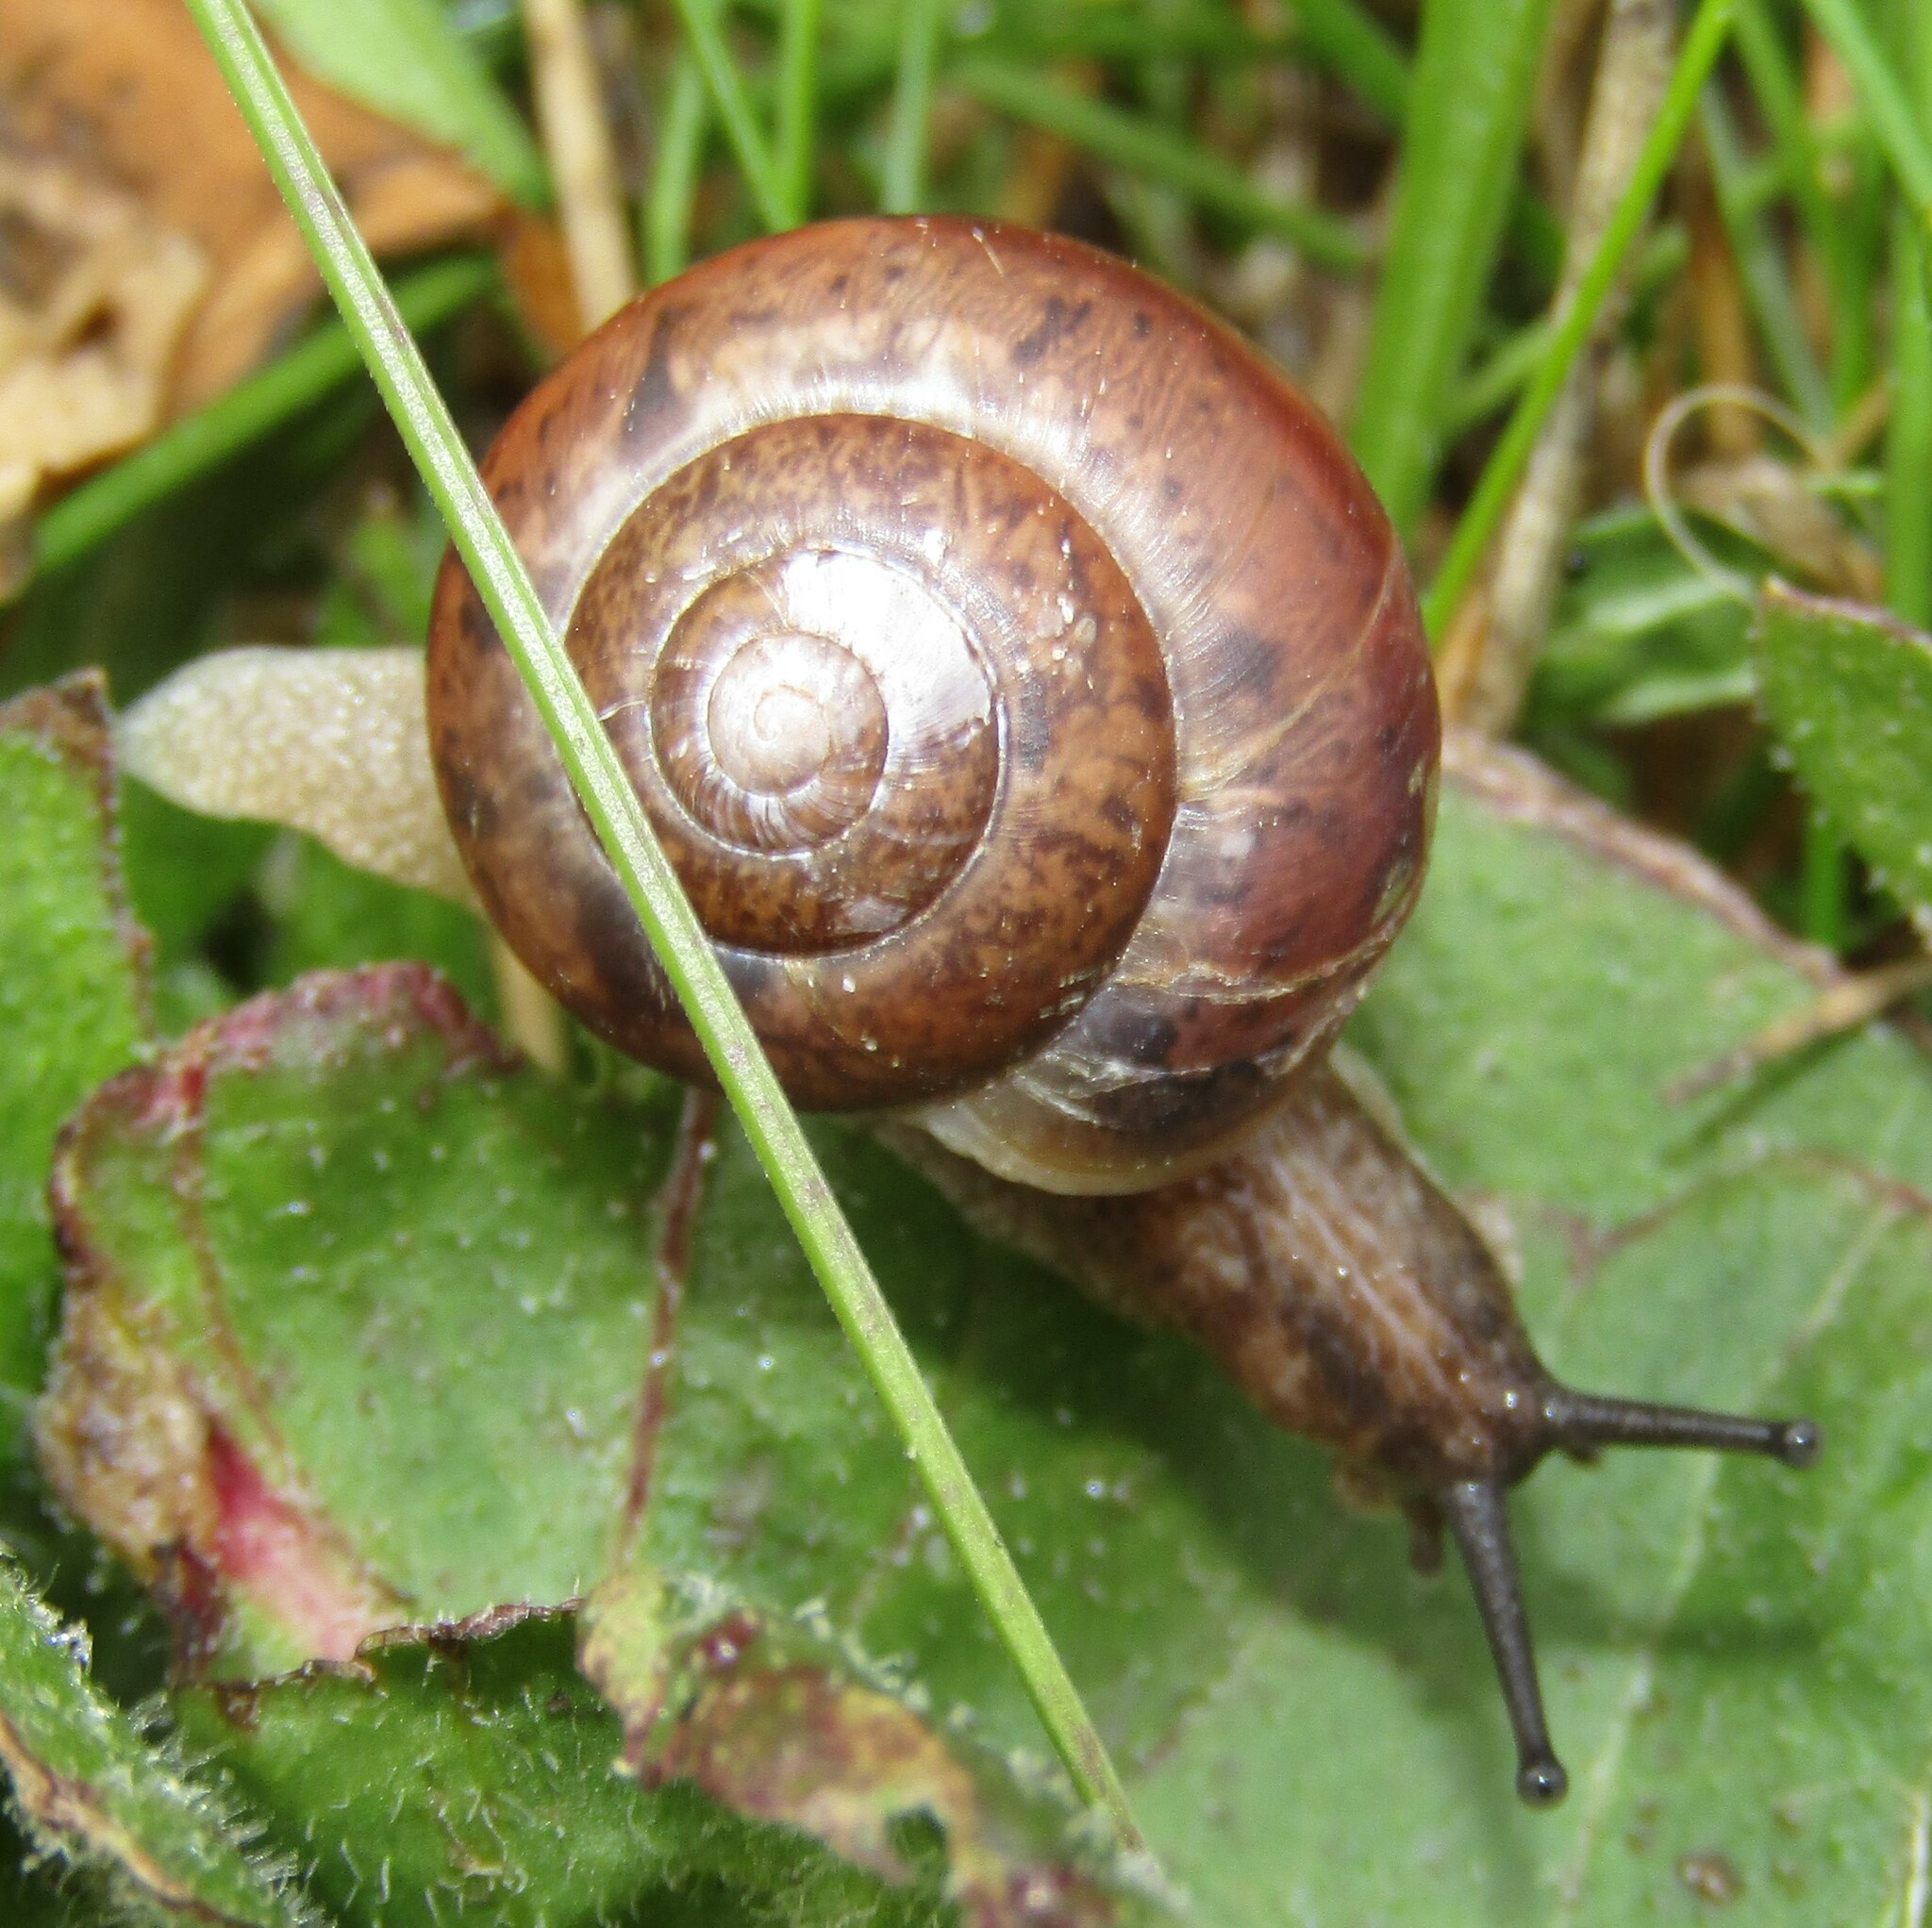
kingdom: Animalia
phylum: Mollusca
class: Gastropoda
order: Stylommatophora
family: Camaenidae
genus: Fruticicola
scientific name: Fruticicola fruticum
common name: Bush snail
